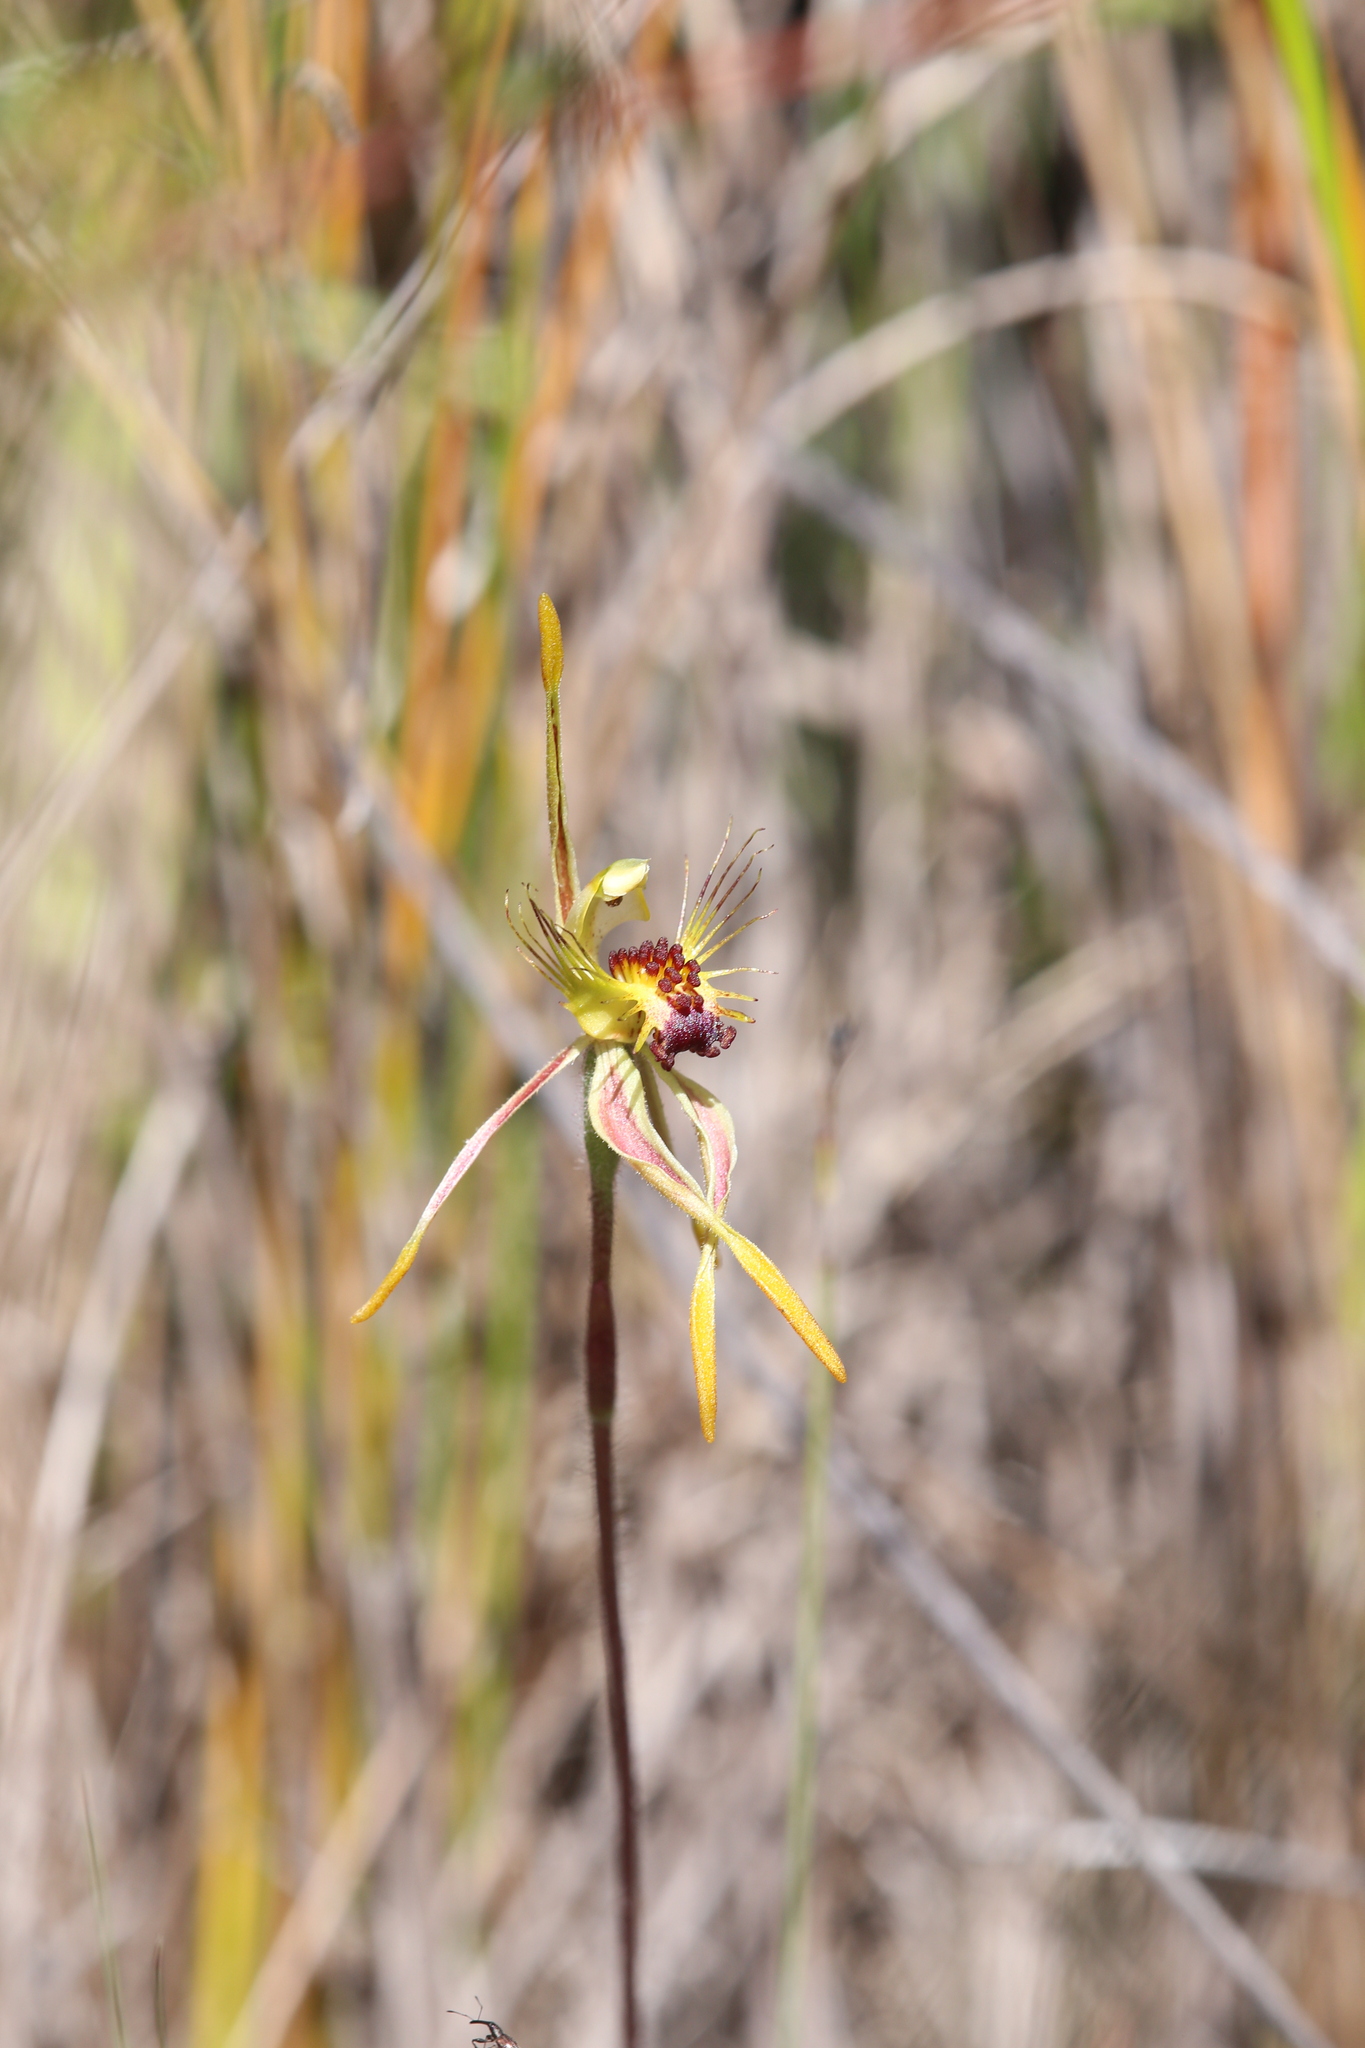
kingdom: Plantae
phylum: Tracheophyta
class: Liliopsida
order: Asparagales
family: Orchidaceae
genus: Caladenia
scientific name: Caladenia corynephora
